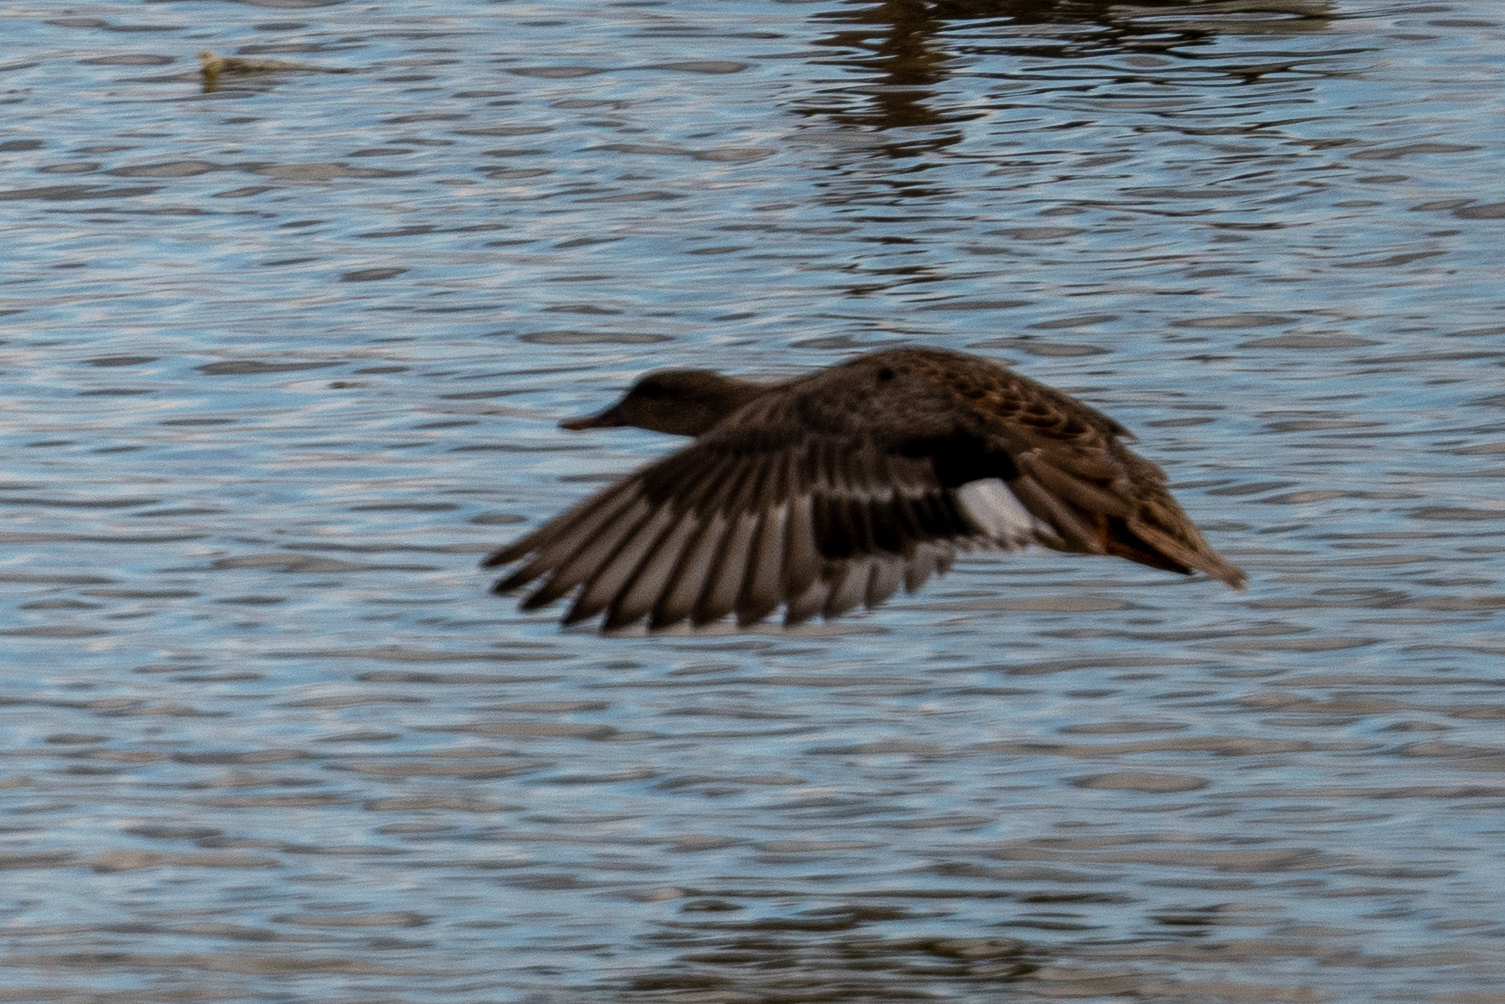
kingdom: Animalia
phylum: Chordata
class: Aves
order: Anseriformes
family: Anatidae
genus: Mareca
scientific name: Mareca strepera
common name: Gadwall
